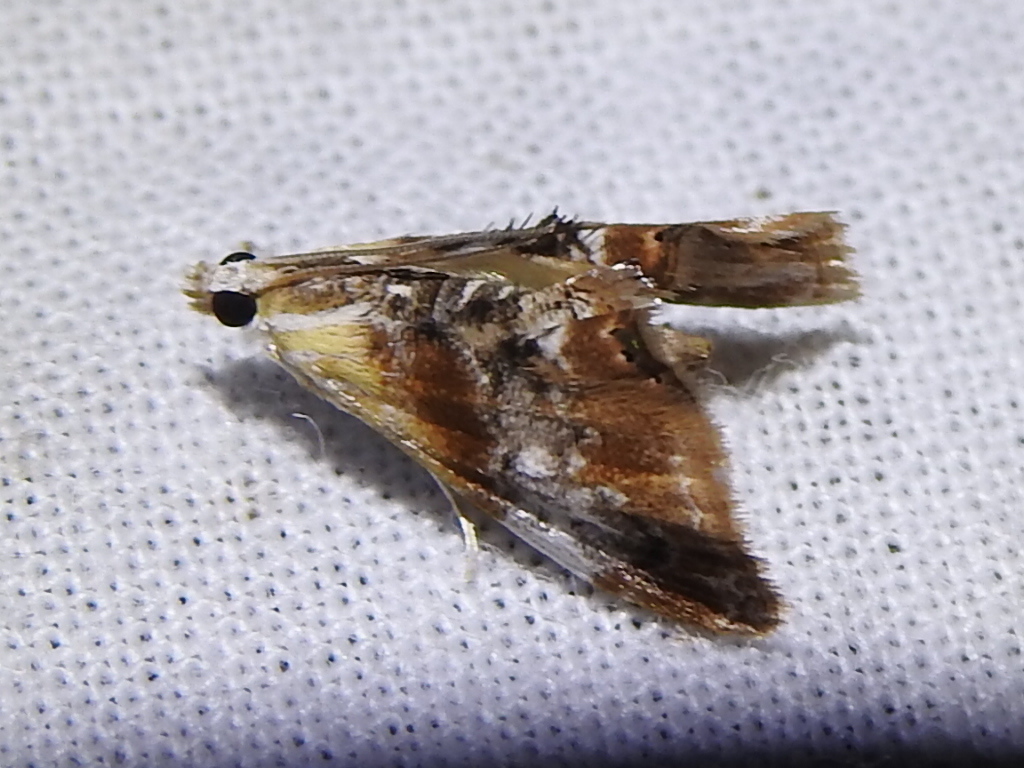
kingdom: Animalia
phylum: Arthropoda
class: Insecta
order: Lepidoptera
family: Crambidae
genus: Dicymolomia
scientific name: Dicymolomia julianalis
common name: Julia's dicymolomia moth
